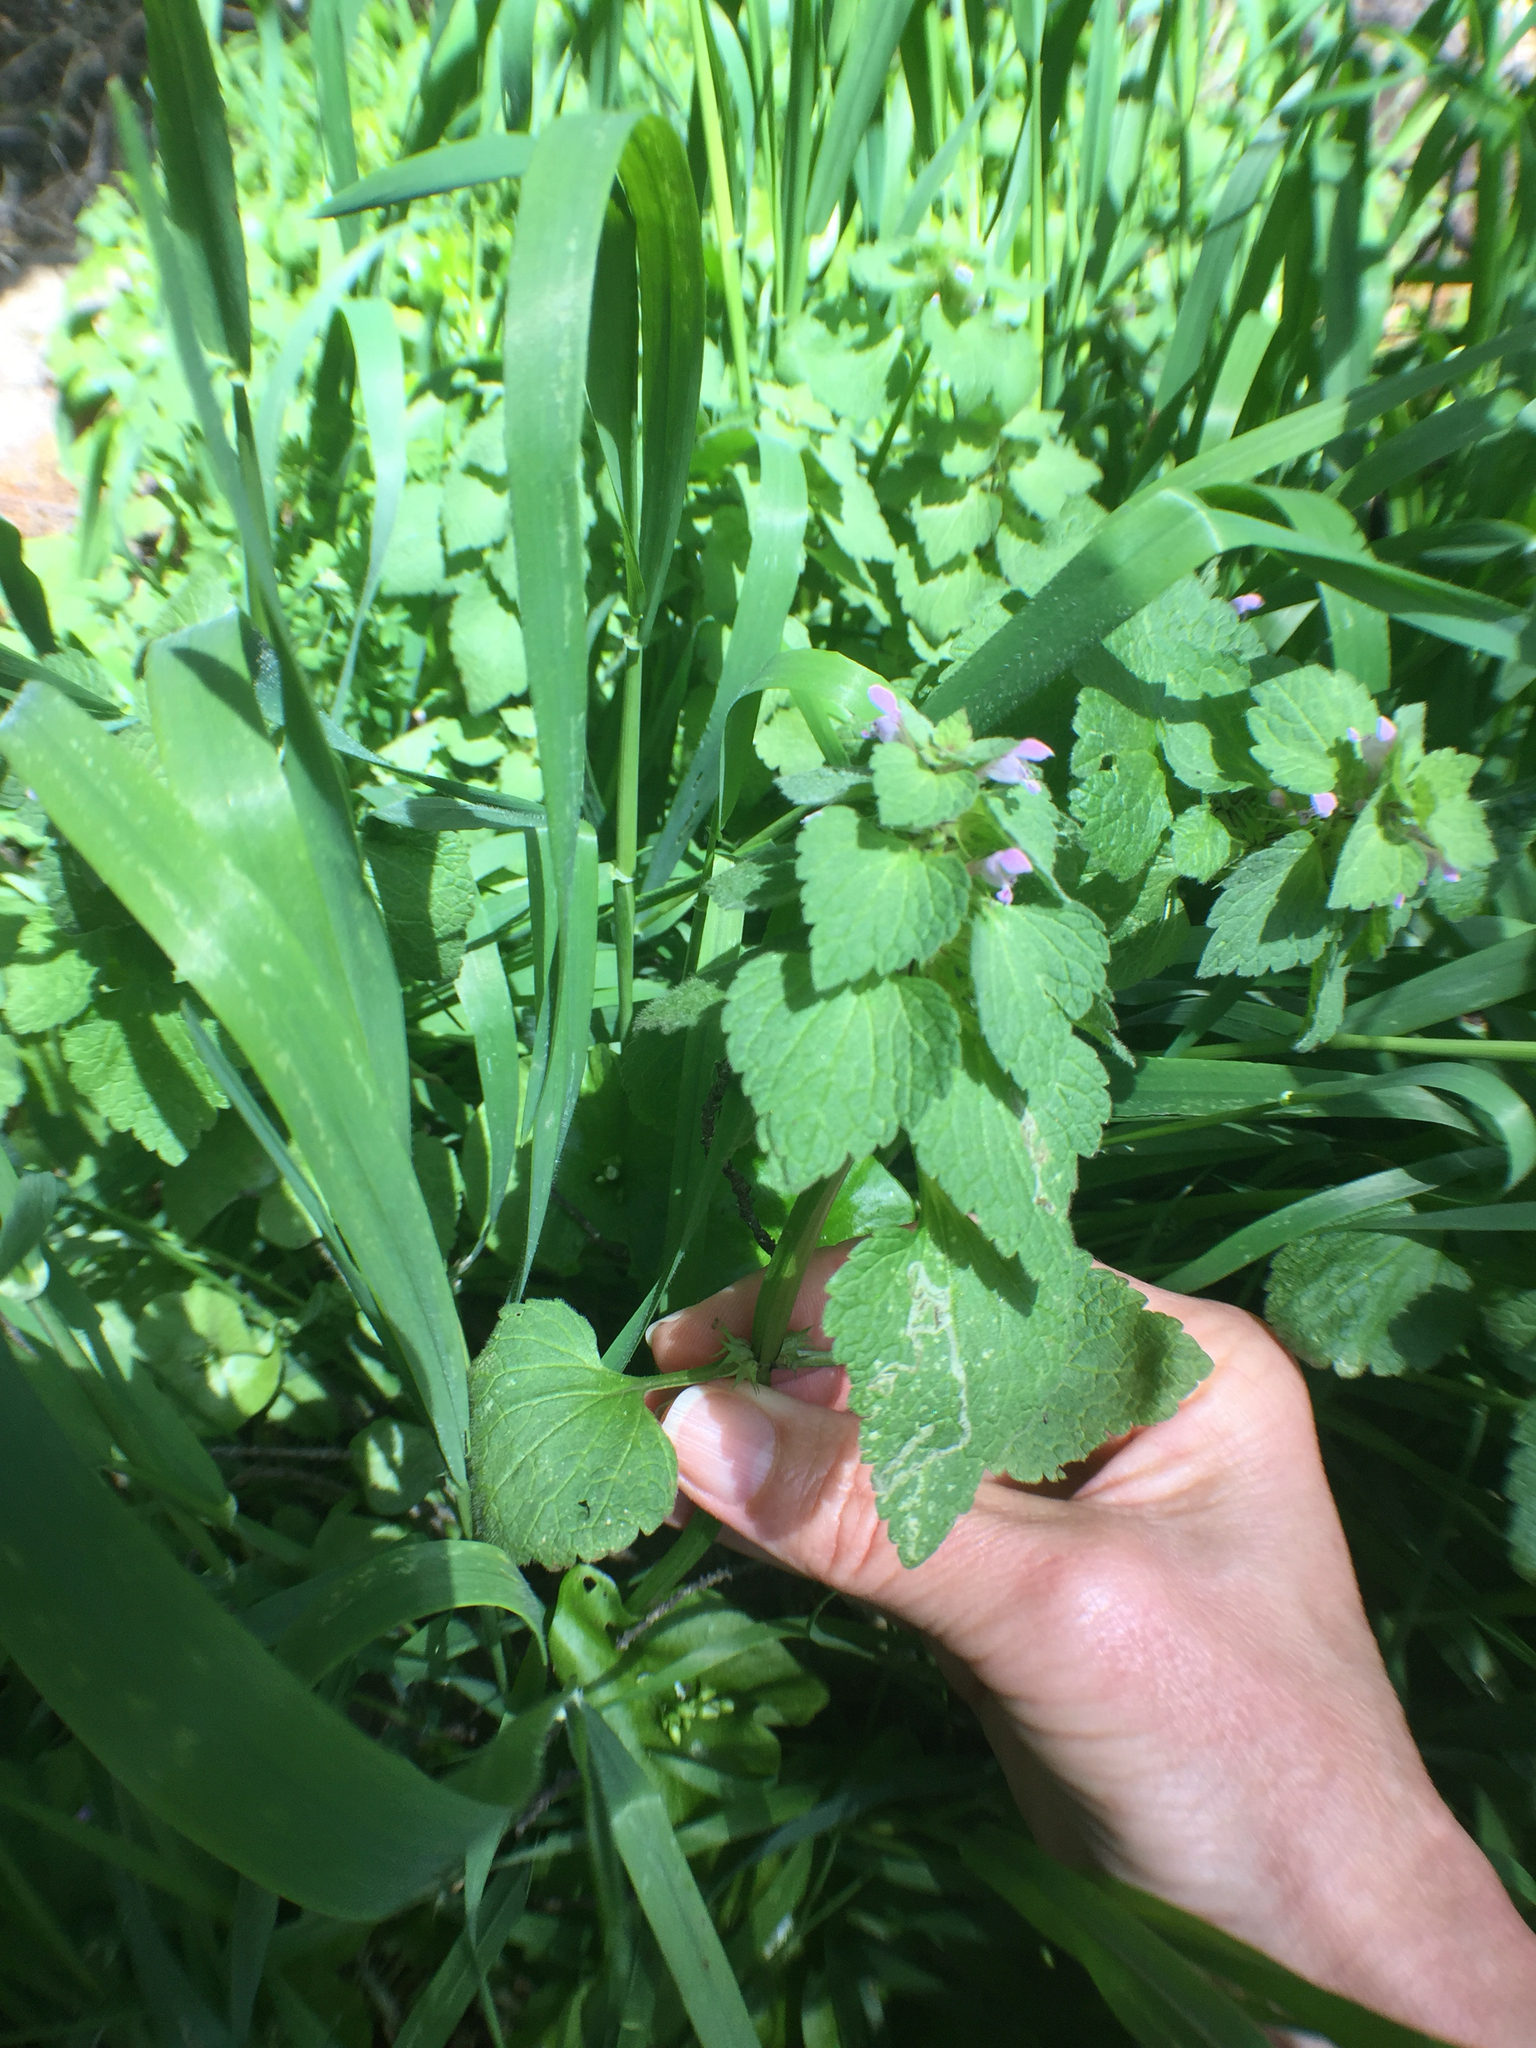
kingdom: Plantae
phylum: Tracheophyta
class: Magnoliopsida
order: Lamiales
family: Lamiaceae
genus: Lamium
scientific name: Lamium purpureum
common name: Red dead-nettle
